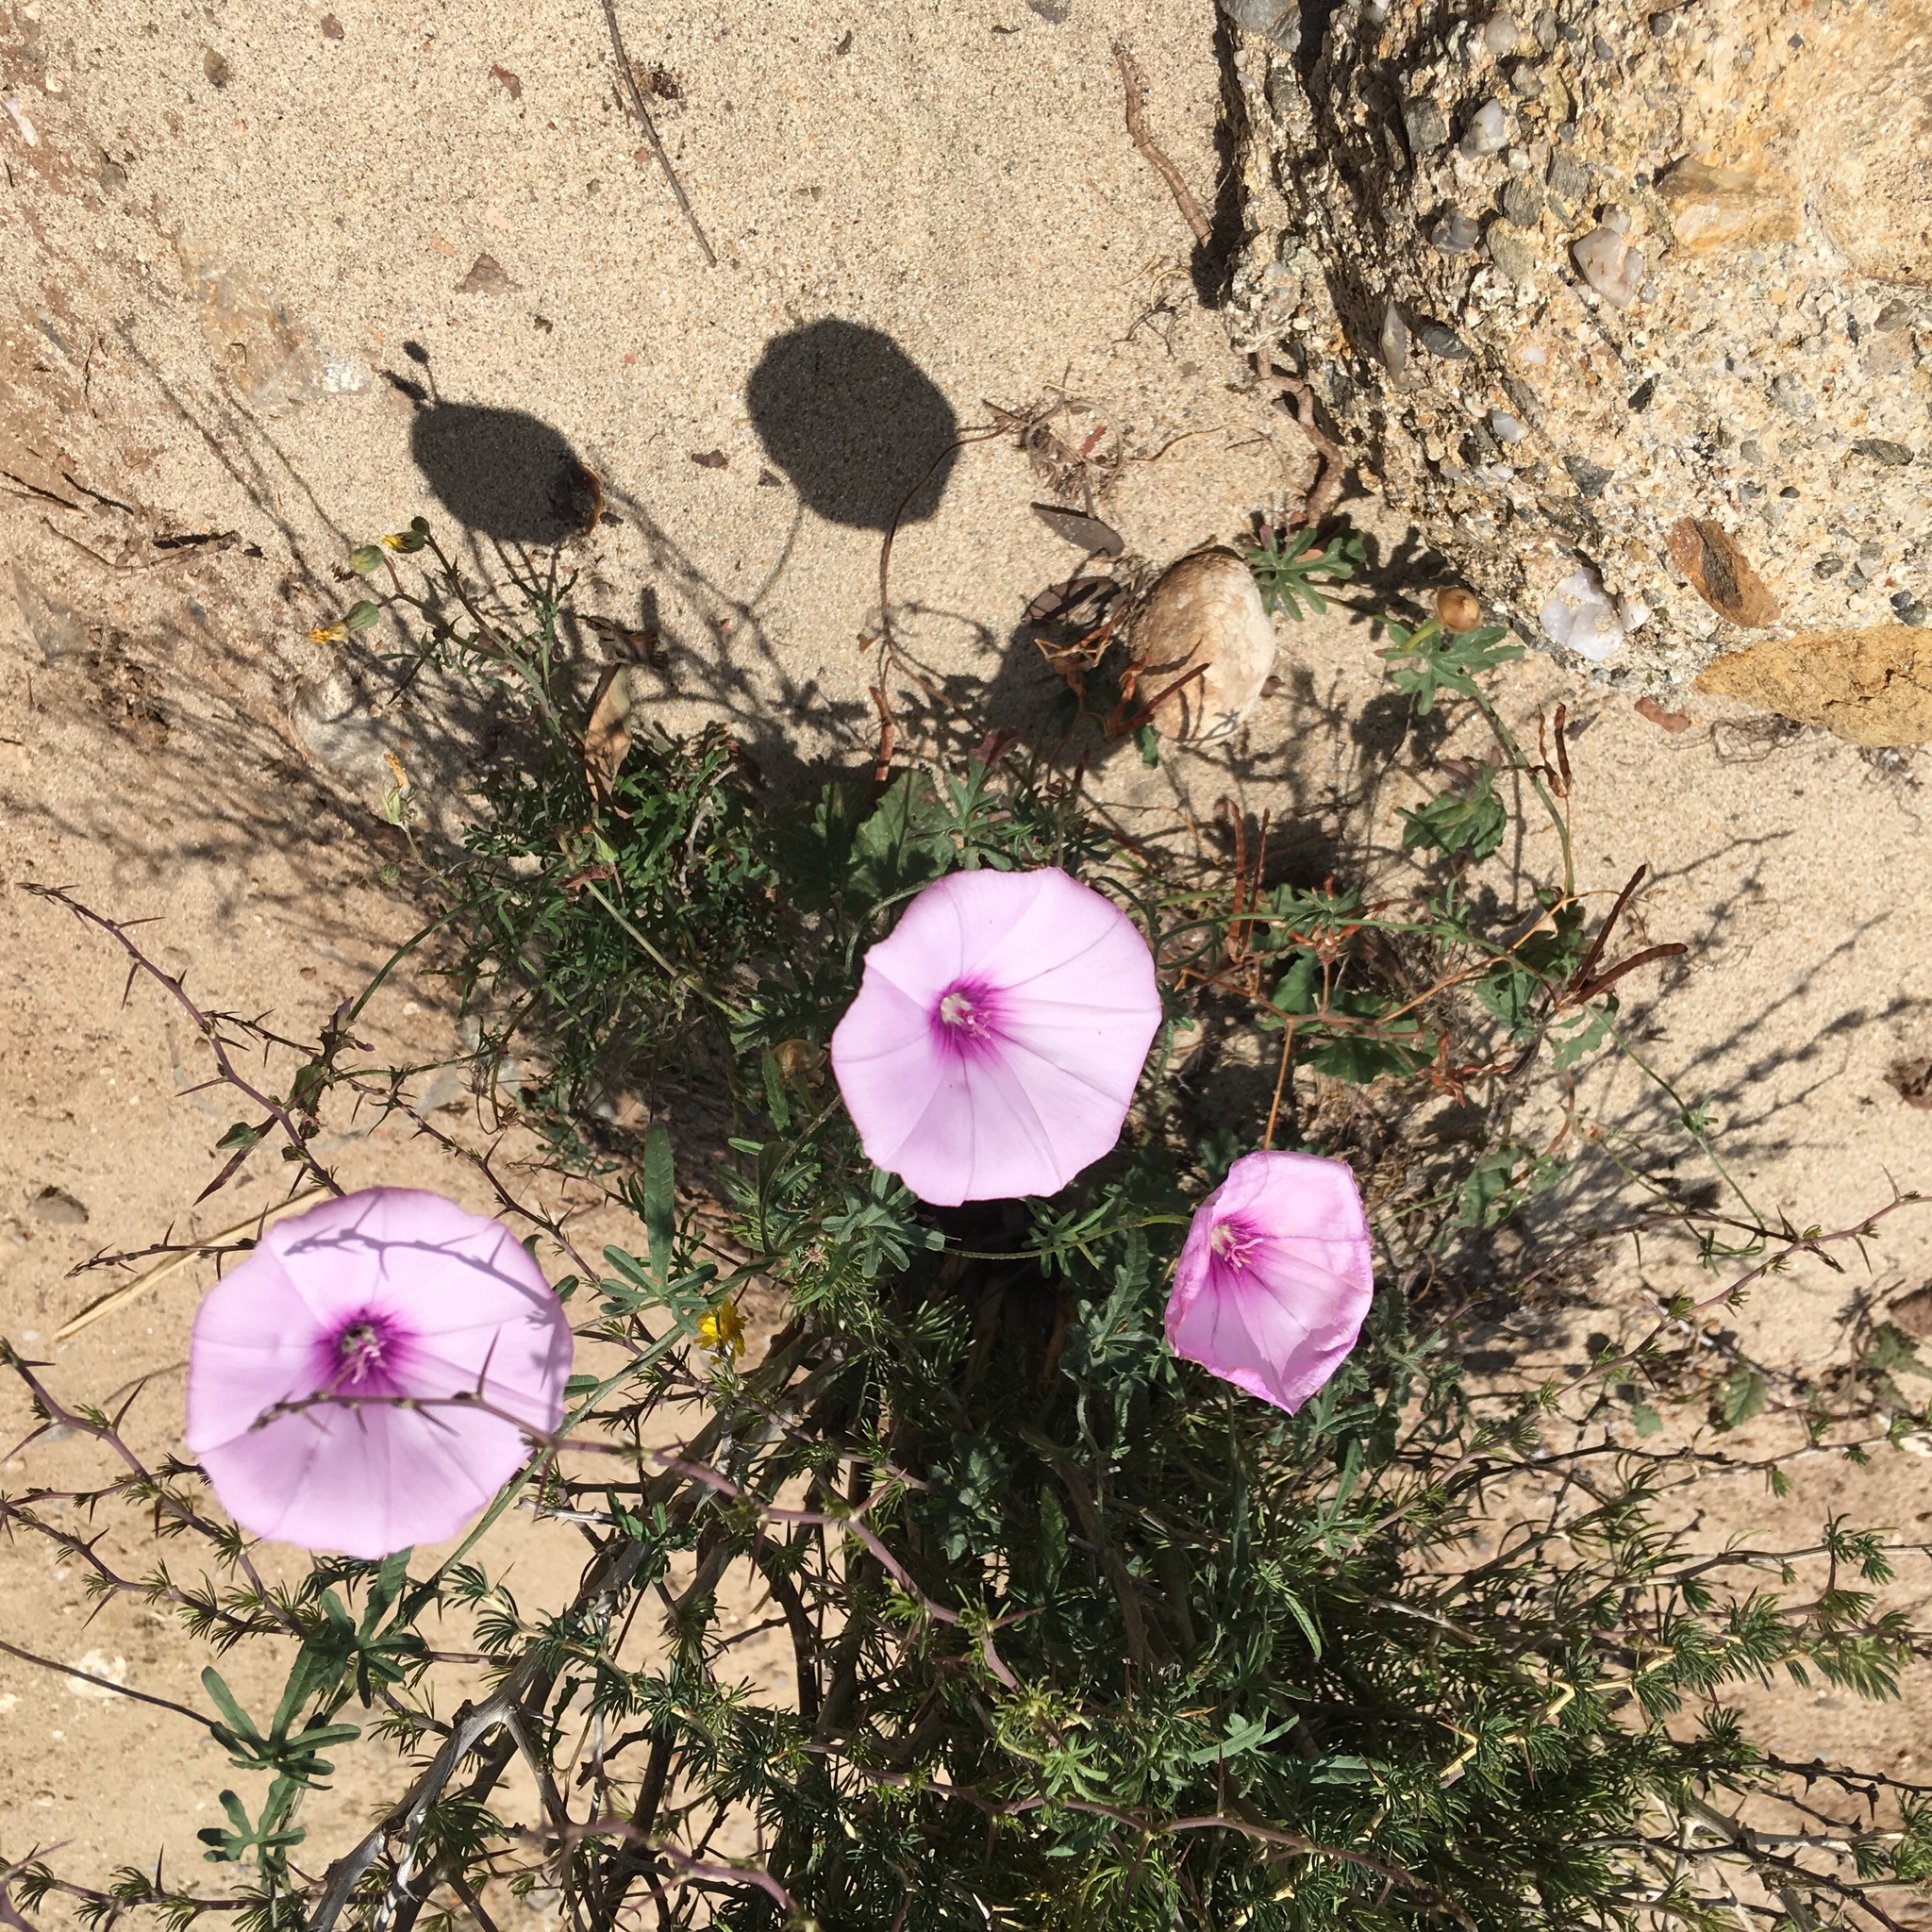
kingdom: Plantae
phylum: Tracheophyta
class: Magnoliopsida
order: Solanales
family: Convolvulaceae
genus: Convolvulus
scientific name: Convolvulus althaeoides
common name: Mallow bindweed
